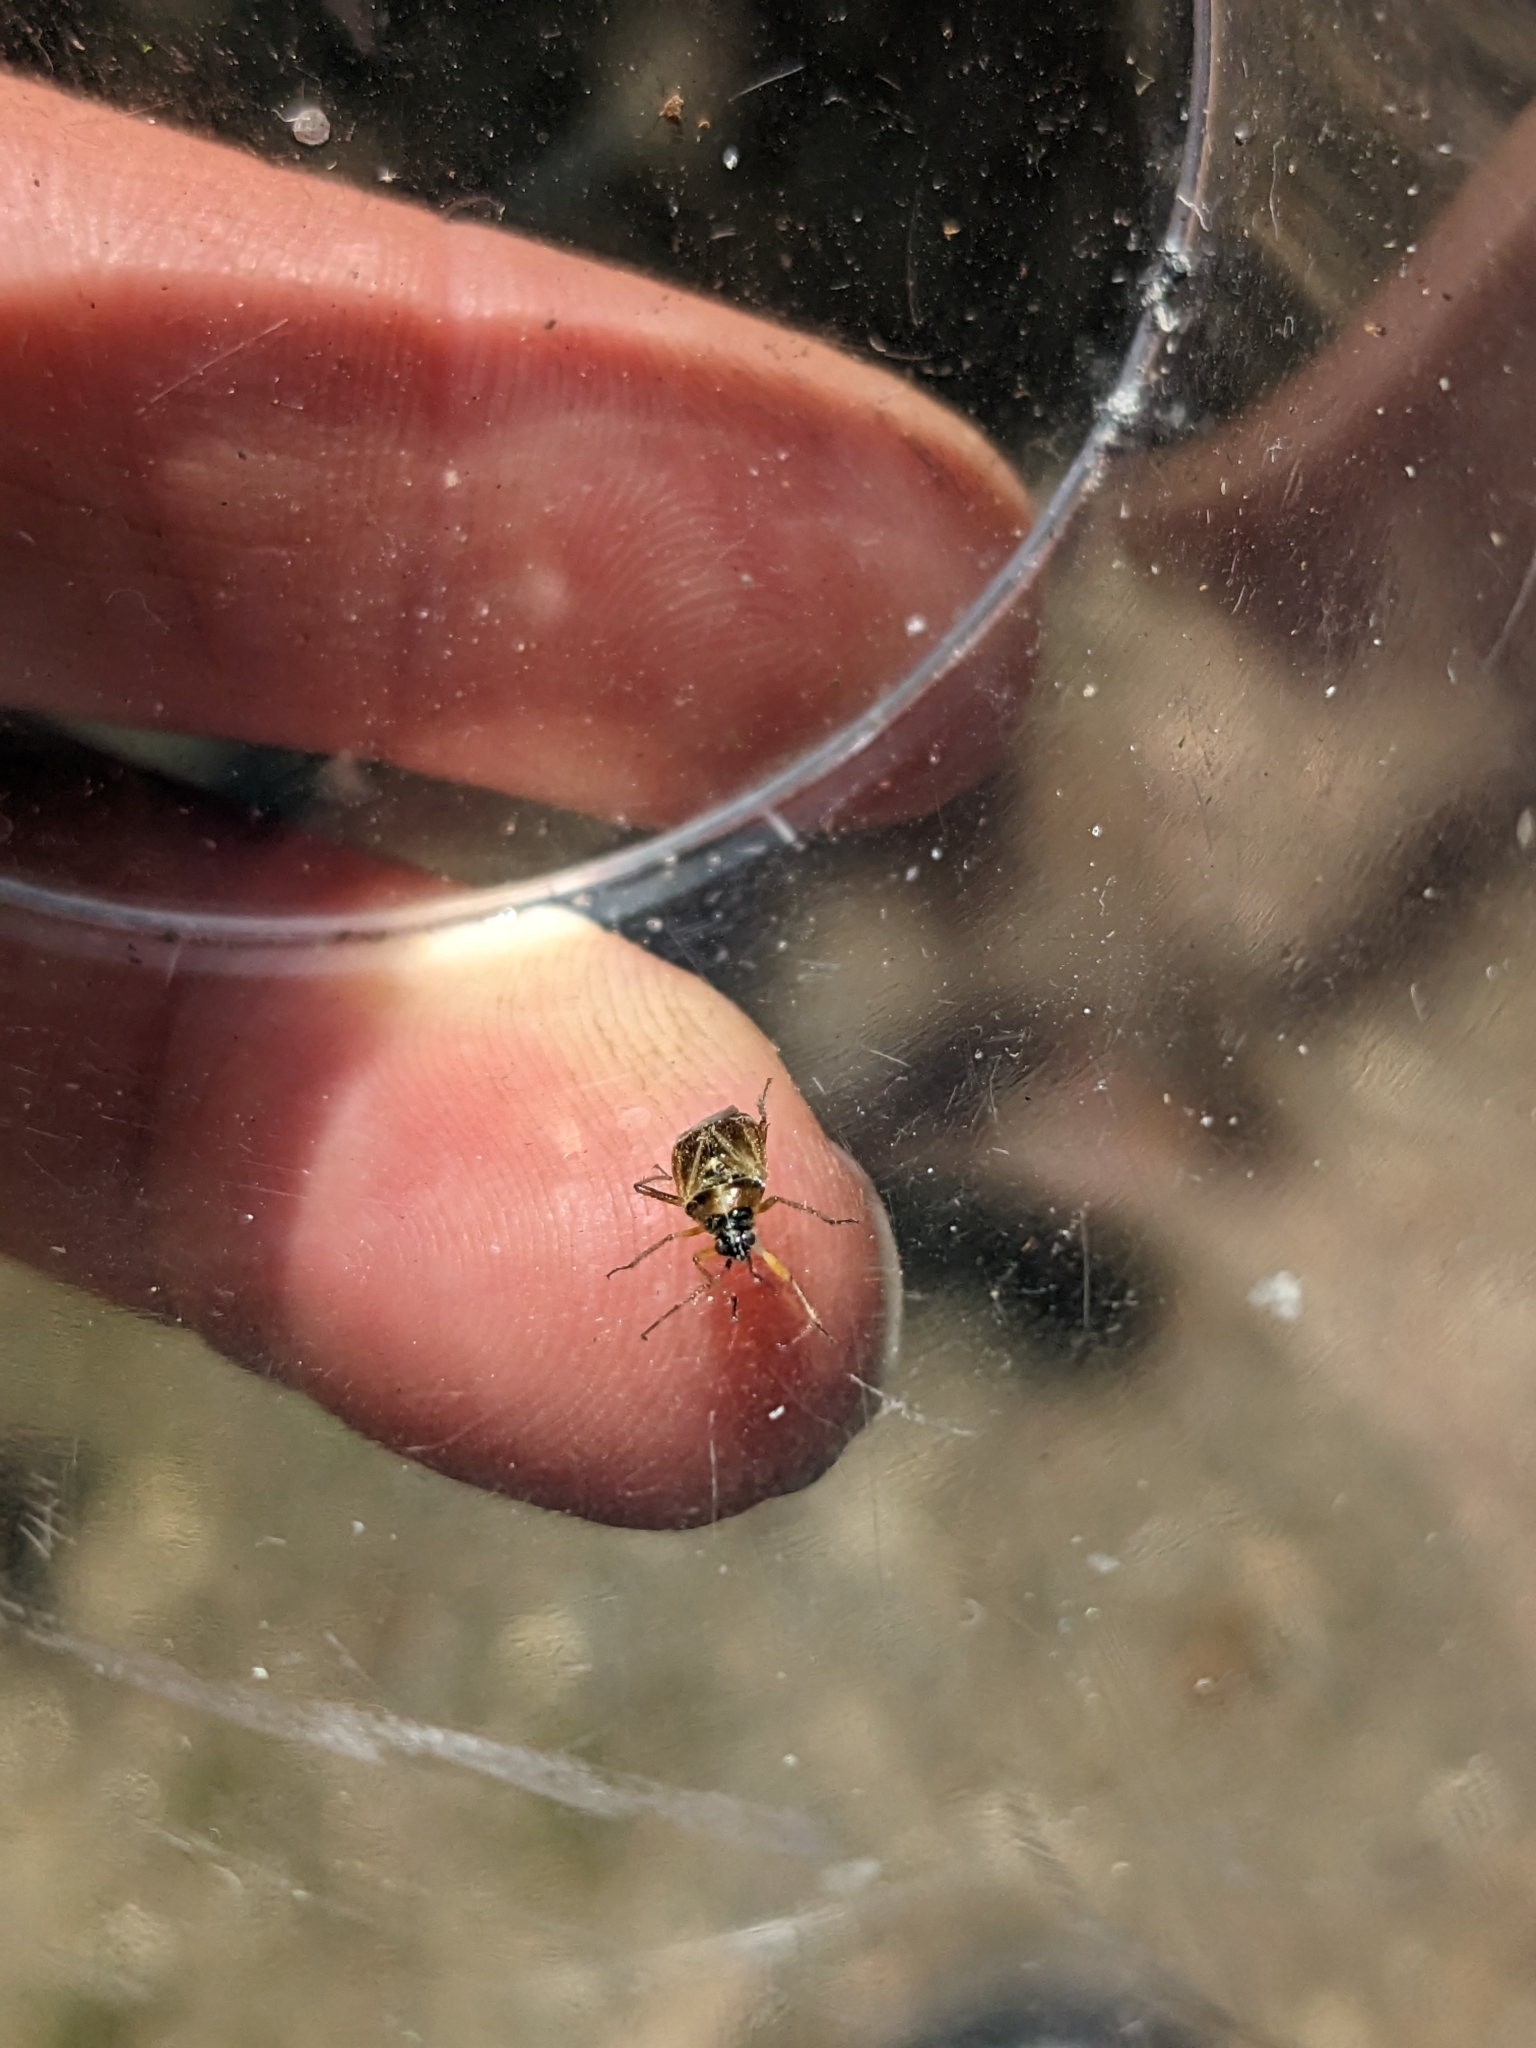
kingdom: Animalia
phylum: Arthropoda
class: Insecta
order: Hemiptera
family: Miridae
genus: Harpocera
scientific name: Harpocera thoracica
